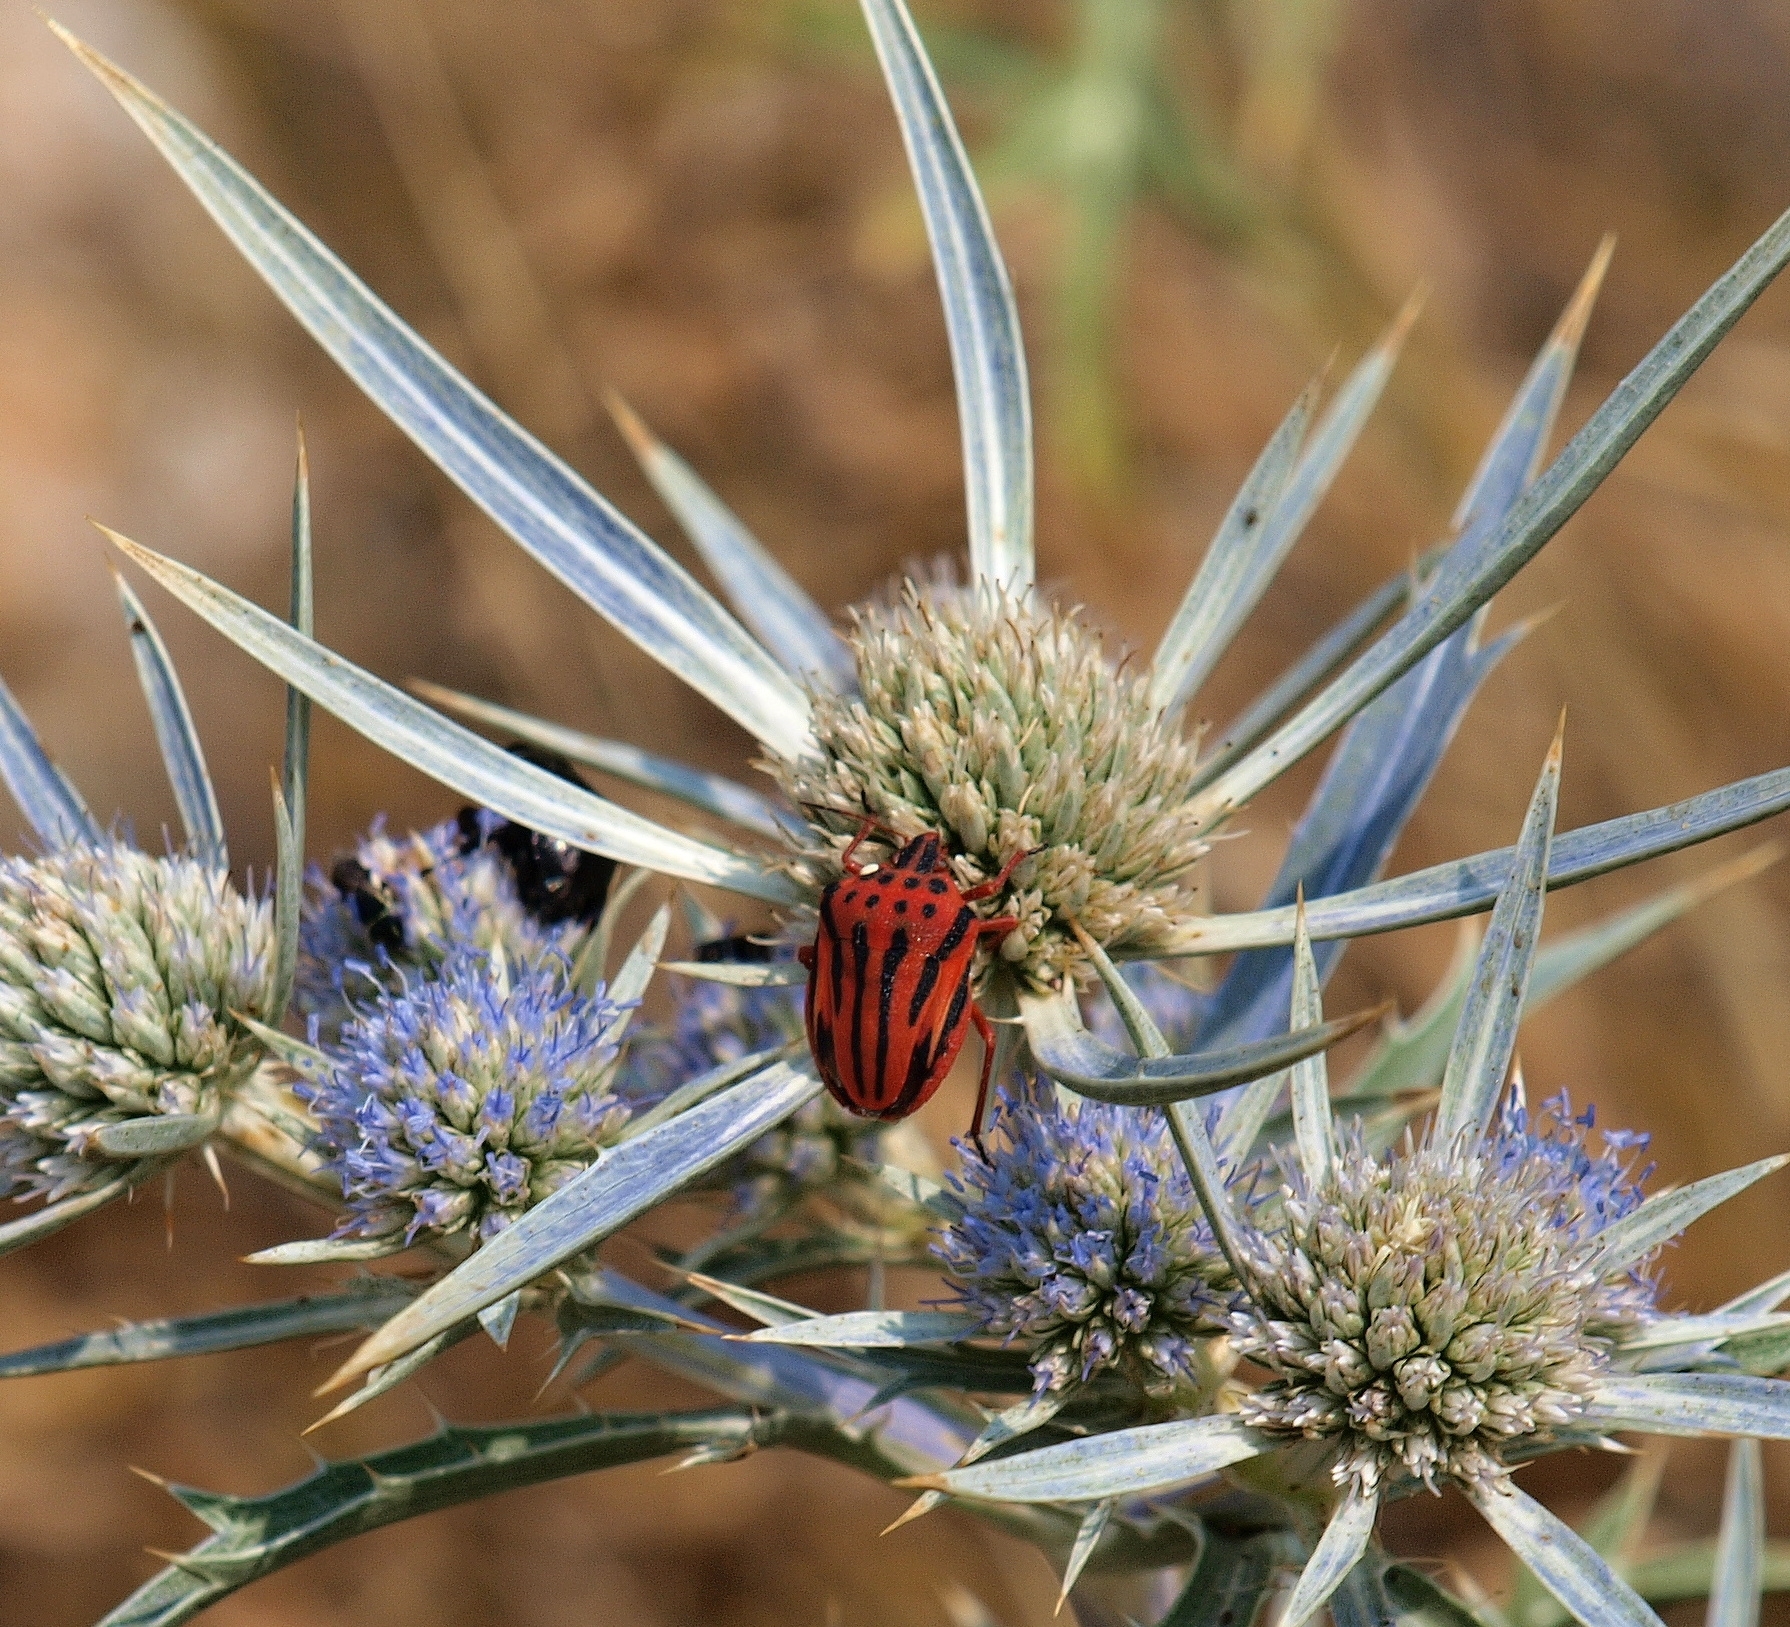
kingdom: Animalia
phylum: Arthropoda
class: Insecta
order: Hemiptera
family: Pentatomidae
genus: Graphosoma
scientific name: Graphosoma semipunctatum
